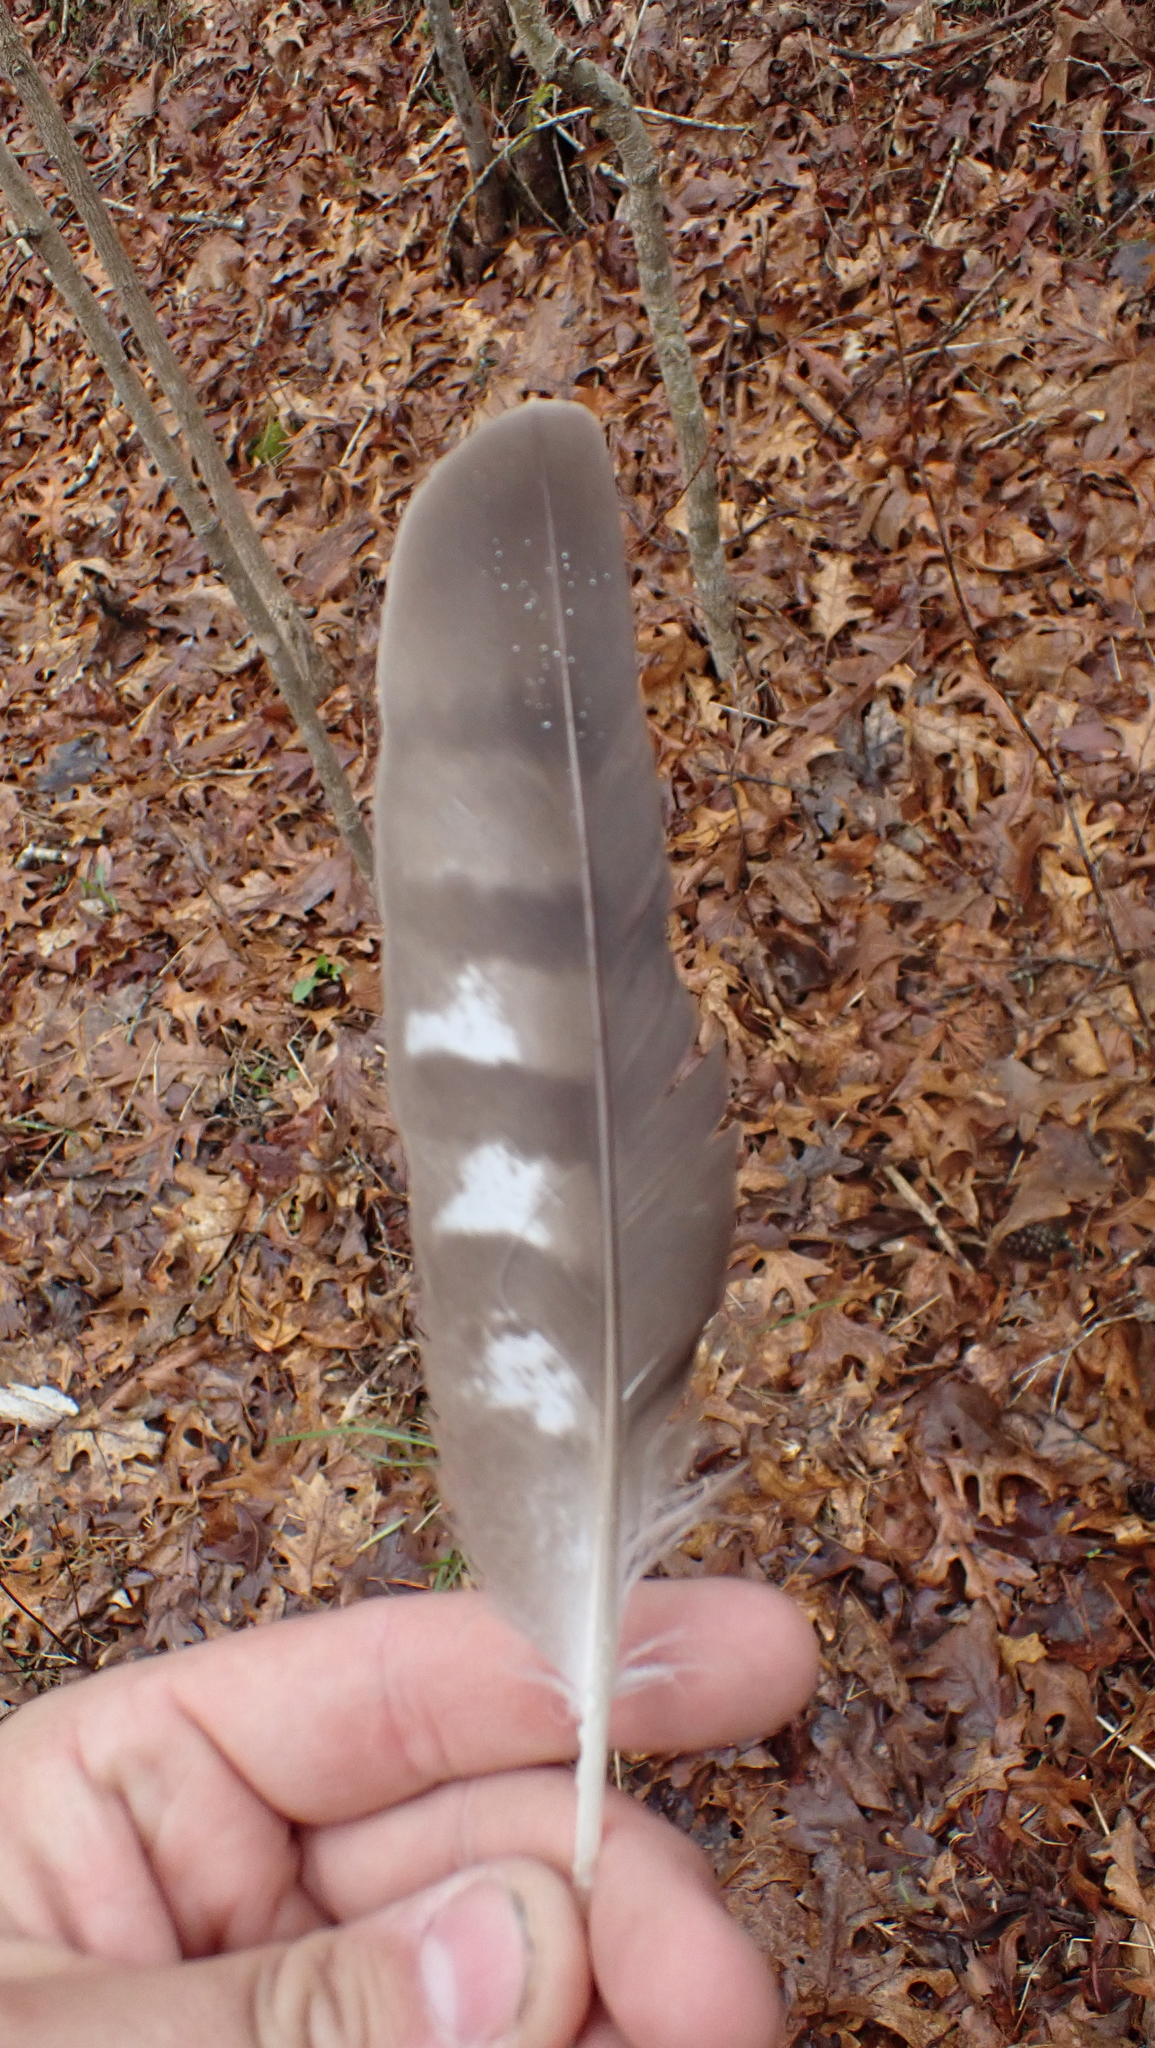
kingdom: Animalia
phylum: Chordata
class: Aves
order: Accipitriformes
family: Accipitridae
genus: Accipiter
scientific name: Accipiter cooperii
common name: Cooper's hawk
